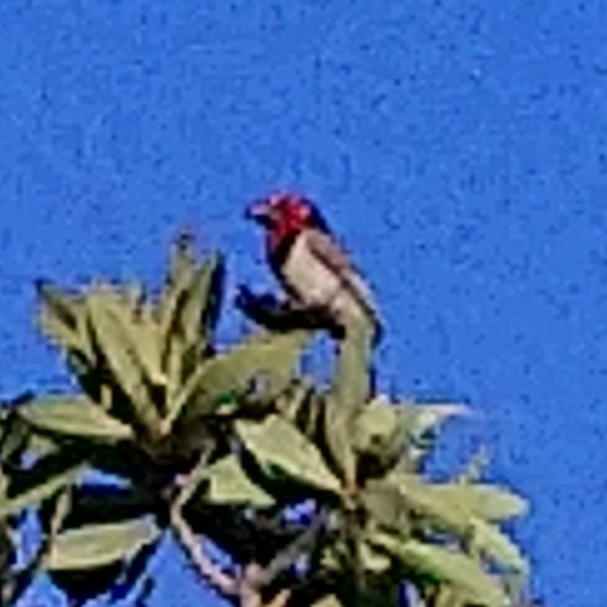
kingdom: Animalia
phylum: Chordata
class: Aves
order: Piciformes
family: Lybiidae
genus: Lybius
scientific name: Lybius torquatus
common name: Black-collared barbet
